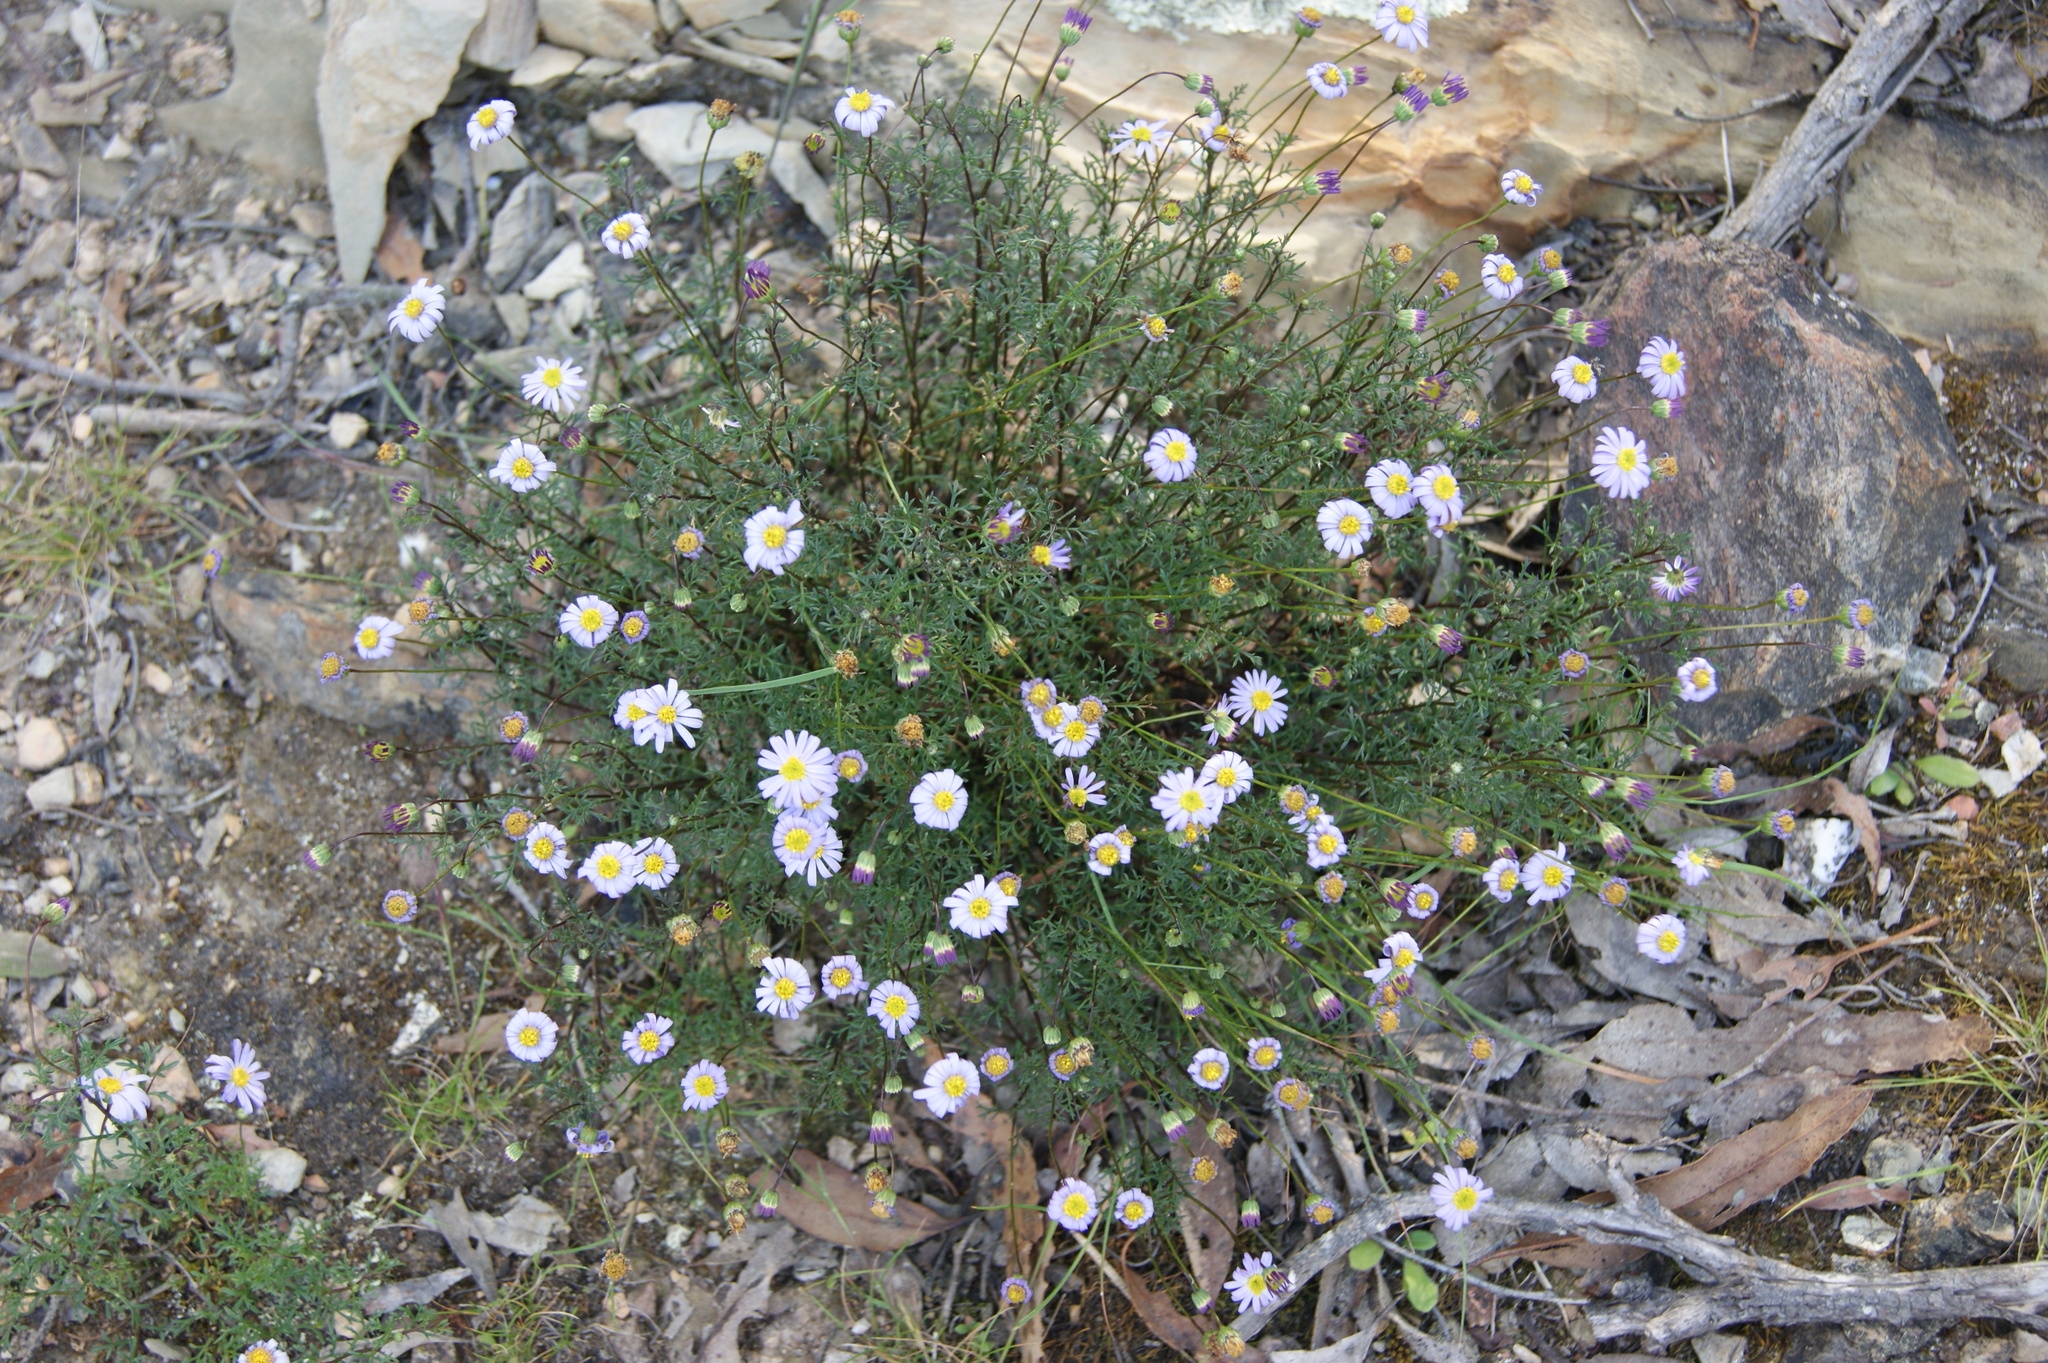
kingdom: Plantae
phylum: Tracheophyta
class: Magnoliopsida
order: Asterales
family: Asteraceae
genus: Brachyscome
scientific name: Brachyscome multifida
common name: Cut-leaf daisy
